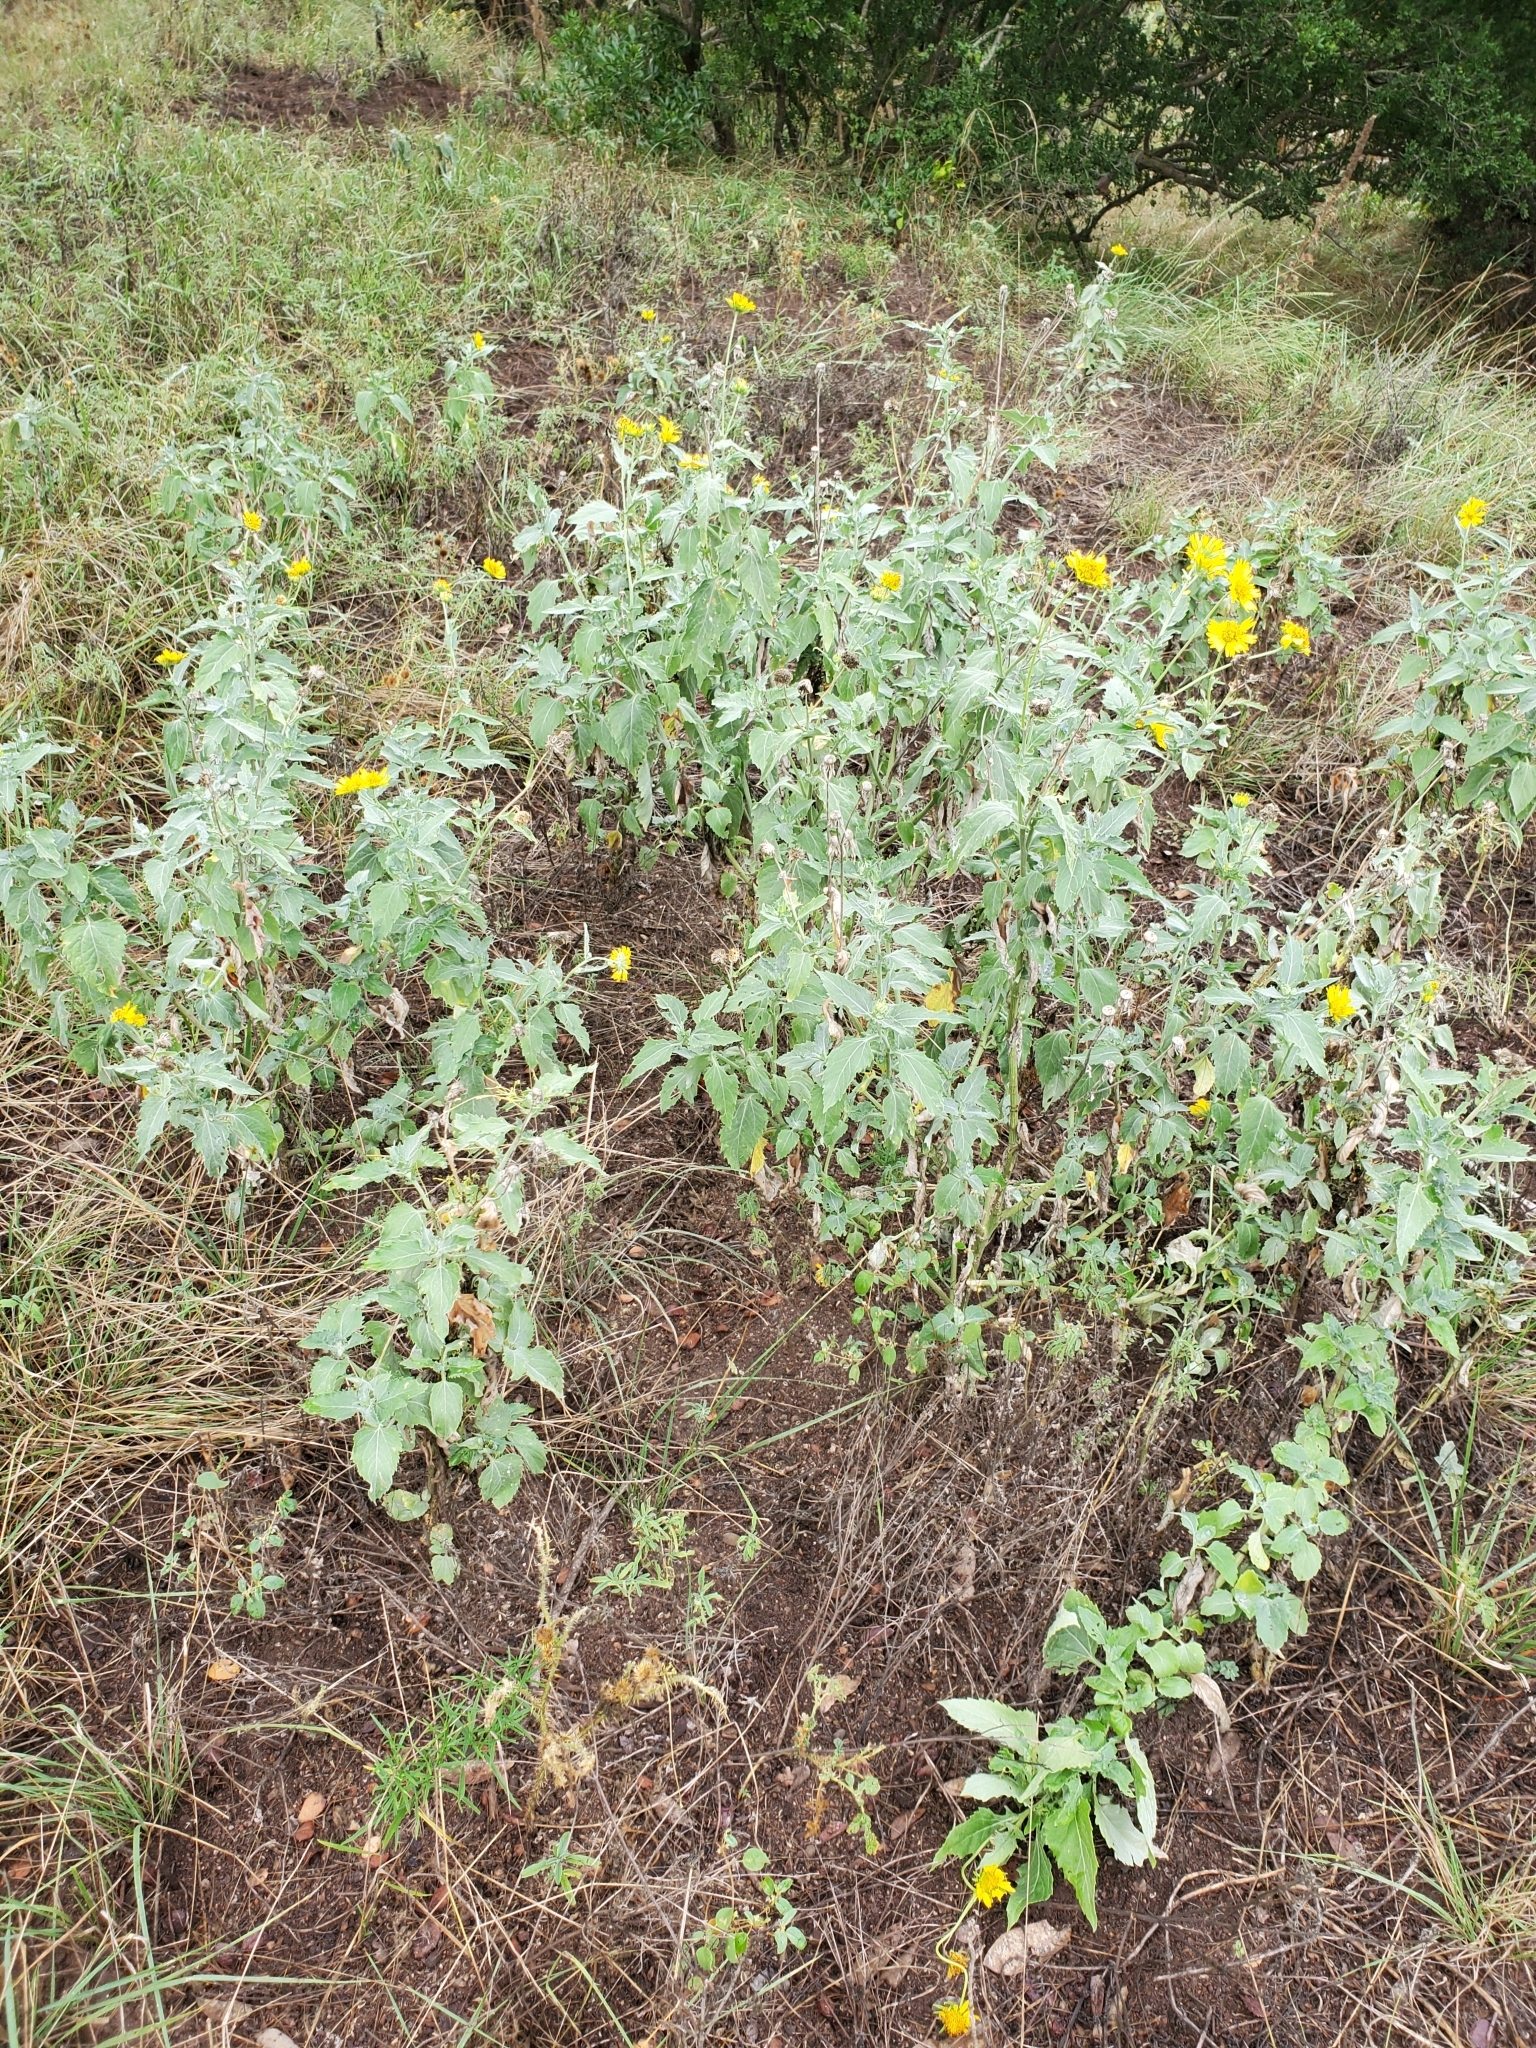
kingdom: Plantae
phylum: Tracheophyta
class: Magnoliopsida
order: Asterales
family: Asteraceae
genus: Verbesina
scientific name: Verbesina encelioides
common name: Golden crownbeard
